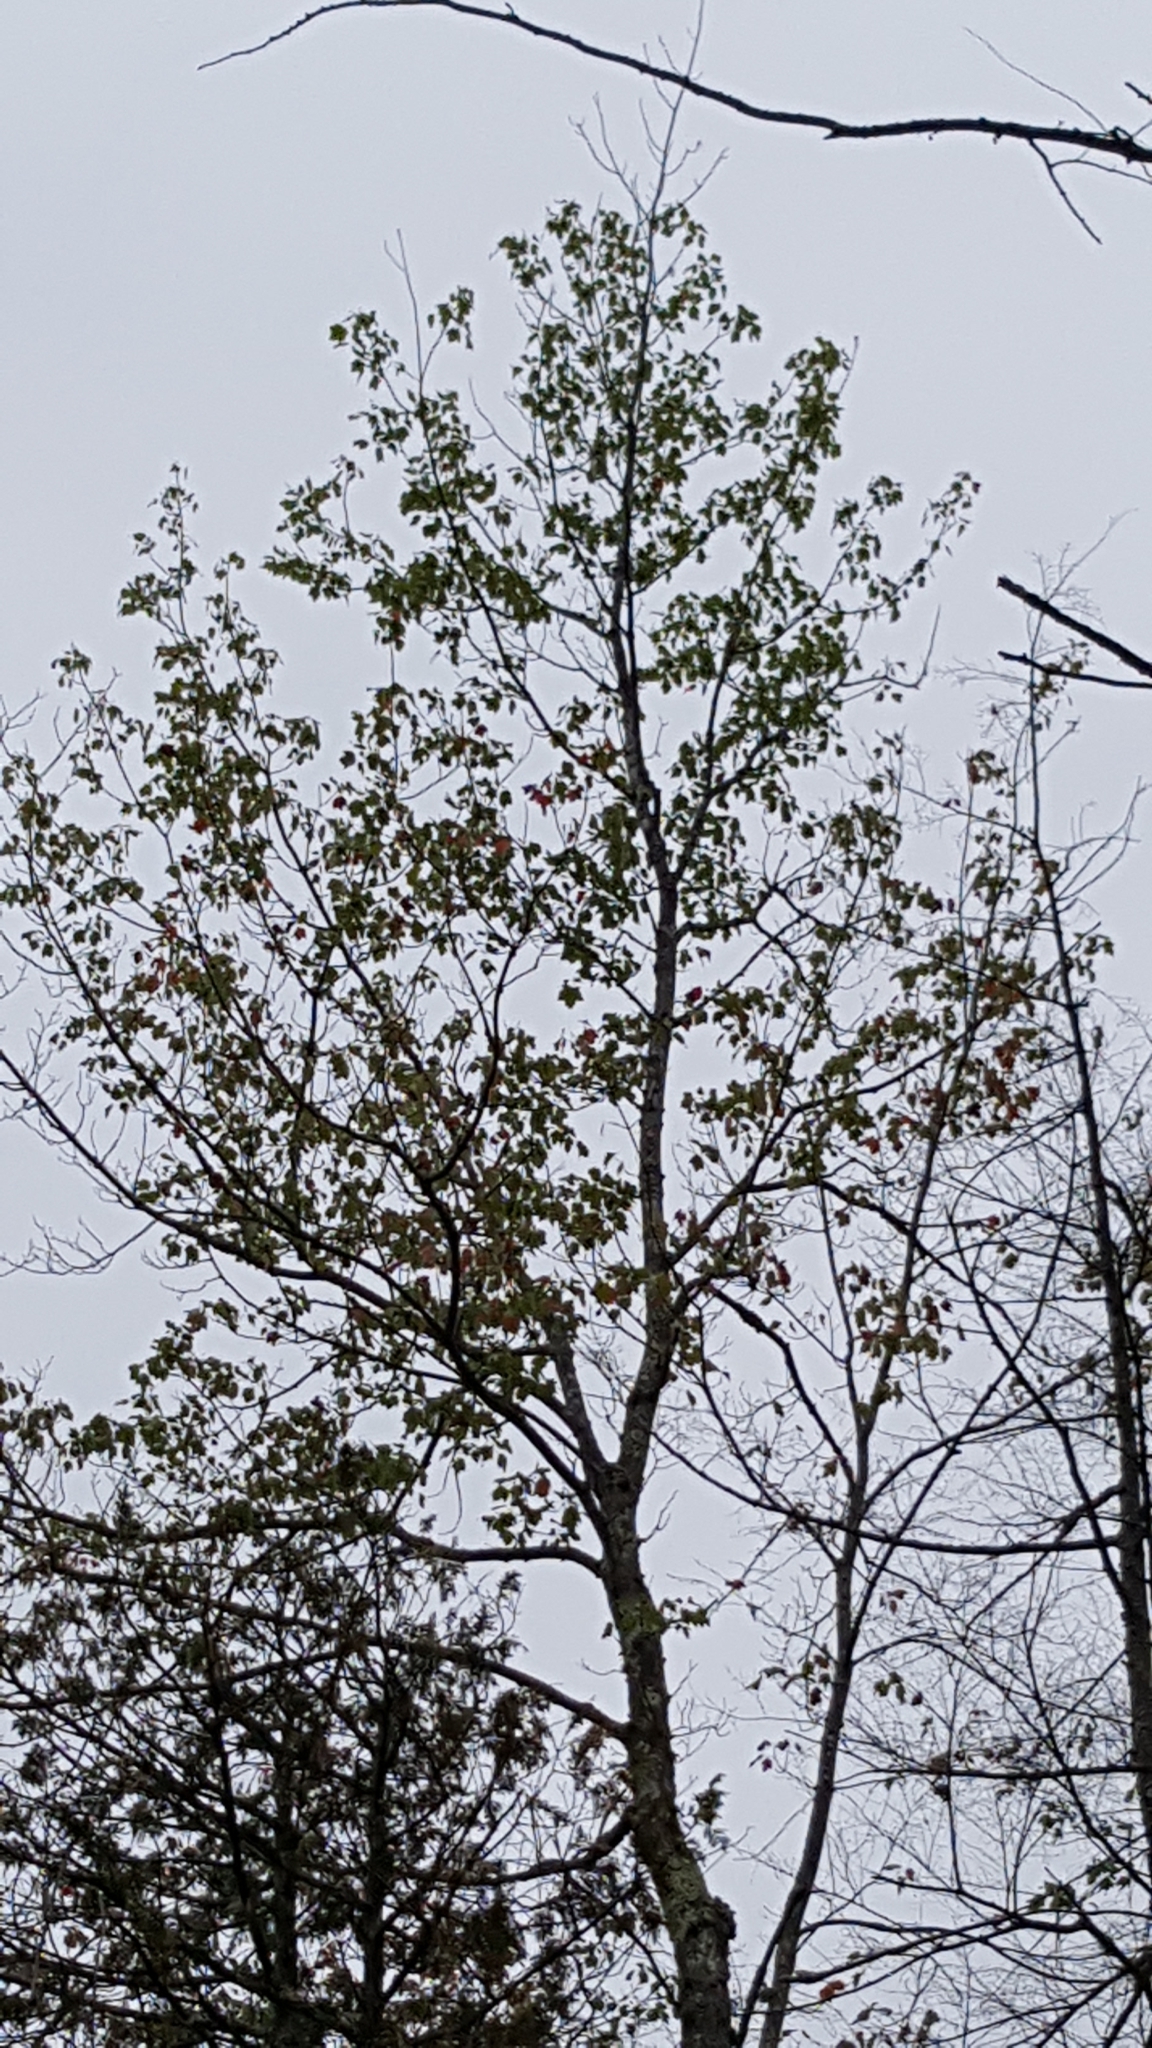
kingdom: Plantae
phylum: Tracheophyta
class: Magnoliopsida
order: Sapindales
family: Sapindaceae
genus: Acer
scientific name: Acer rubrum
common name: Red maple
